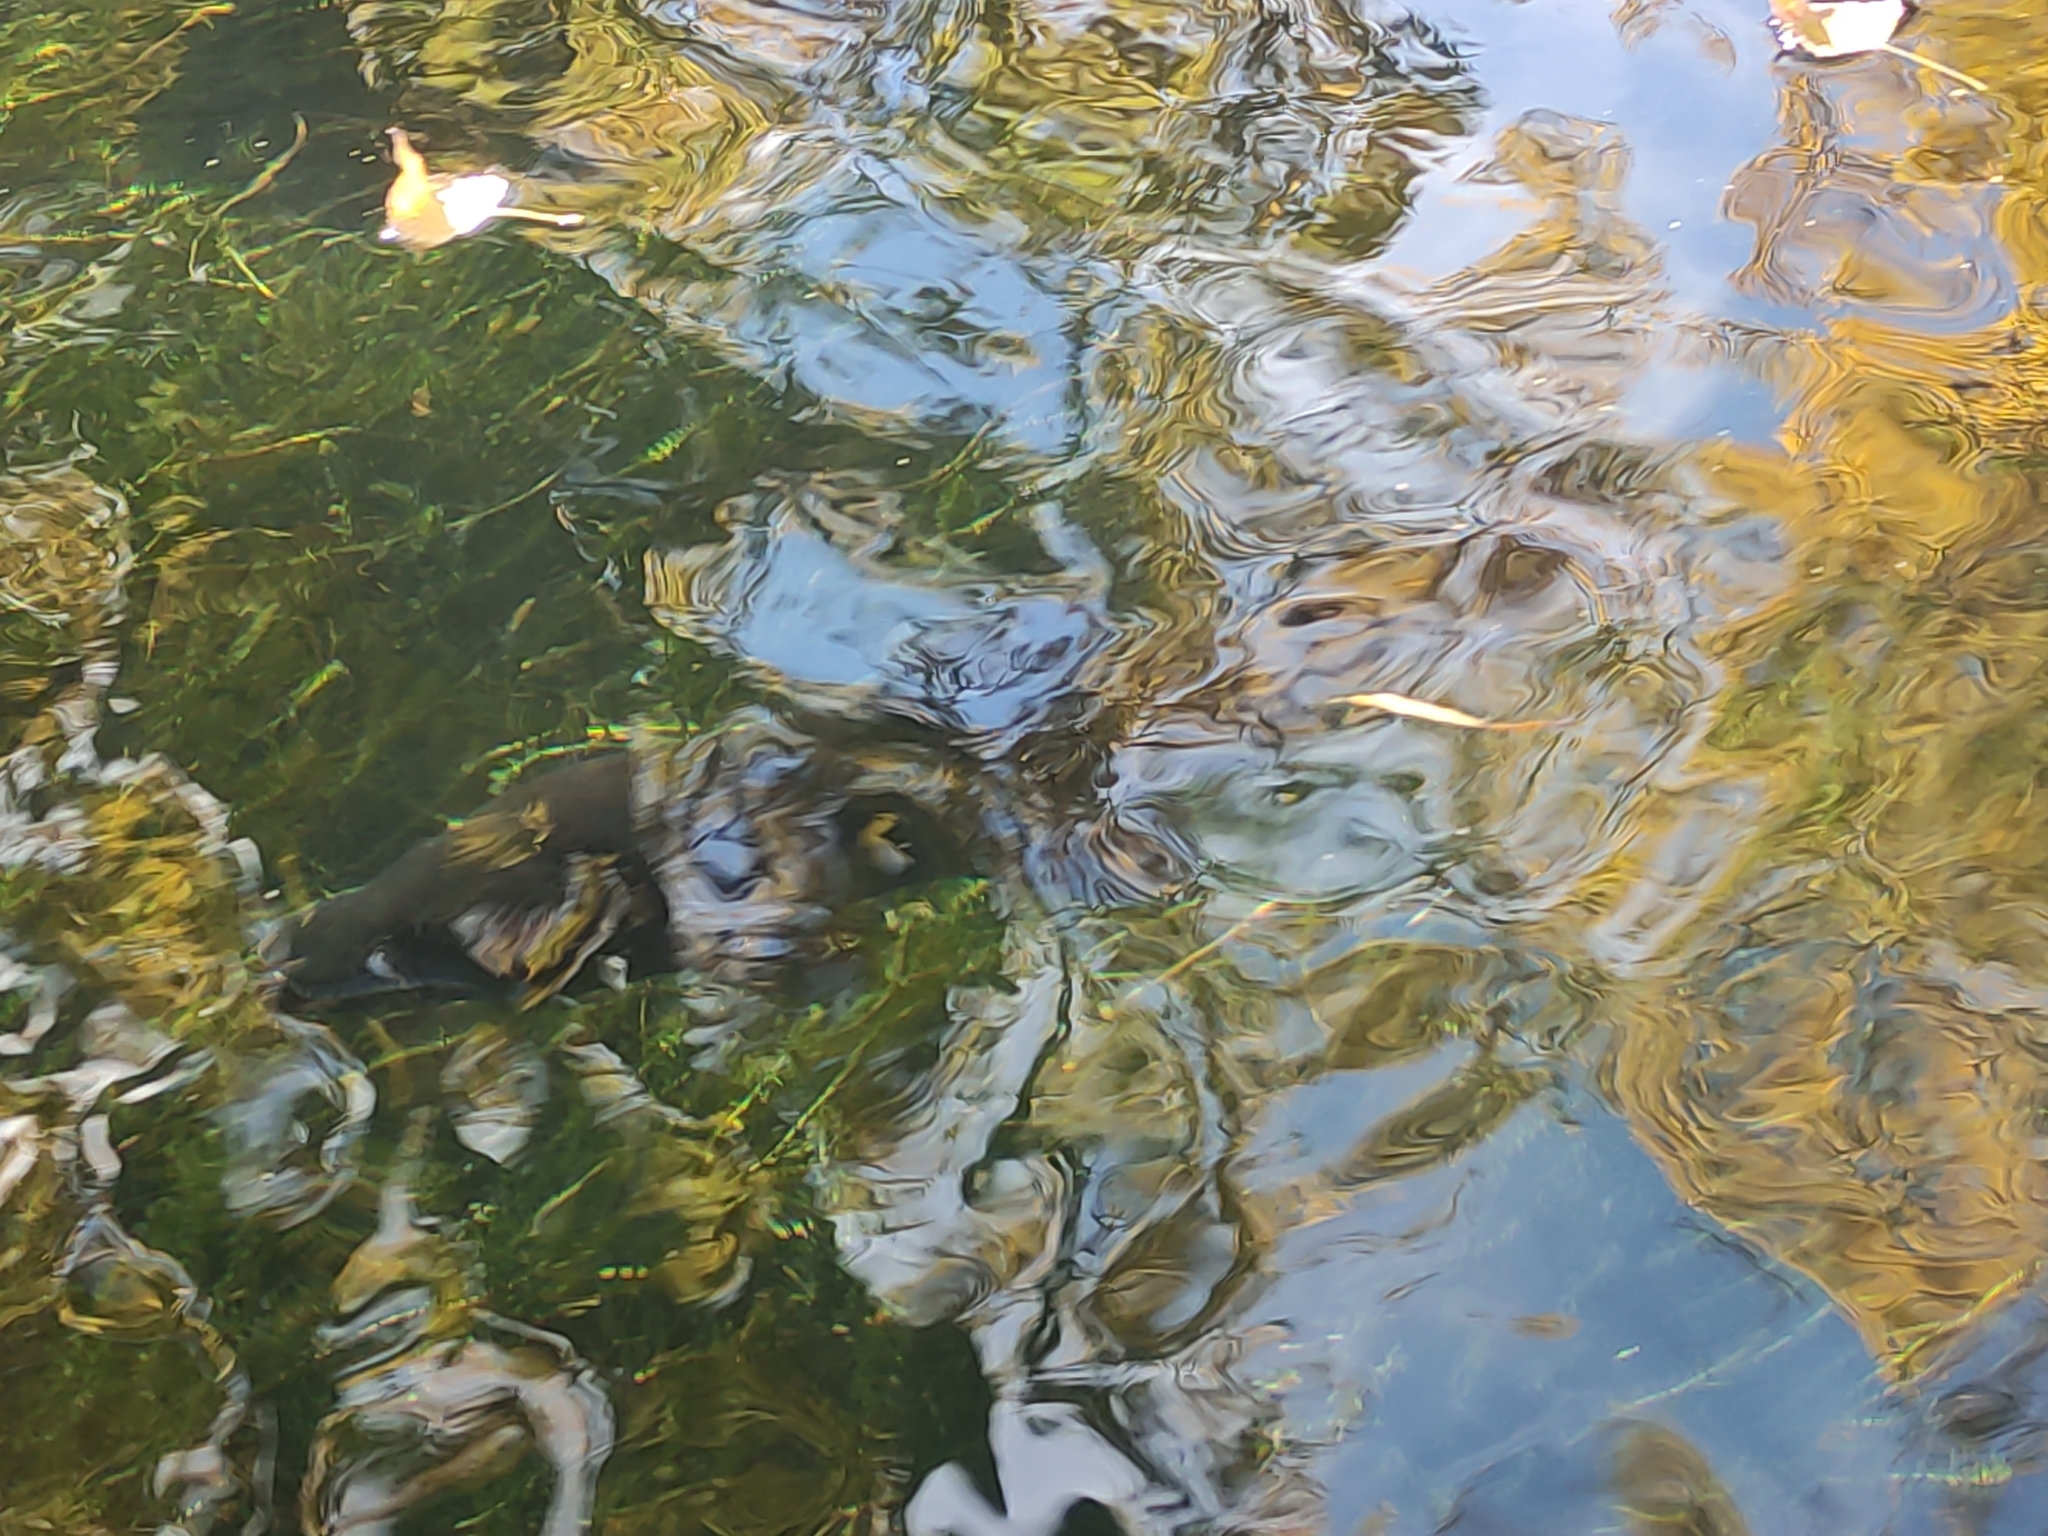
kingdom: Animalia
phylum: Chordata
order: Salmoniformes
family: Salmonidae
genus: Salmo
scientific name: Salmo trutta
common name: Brown trout
